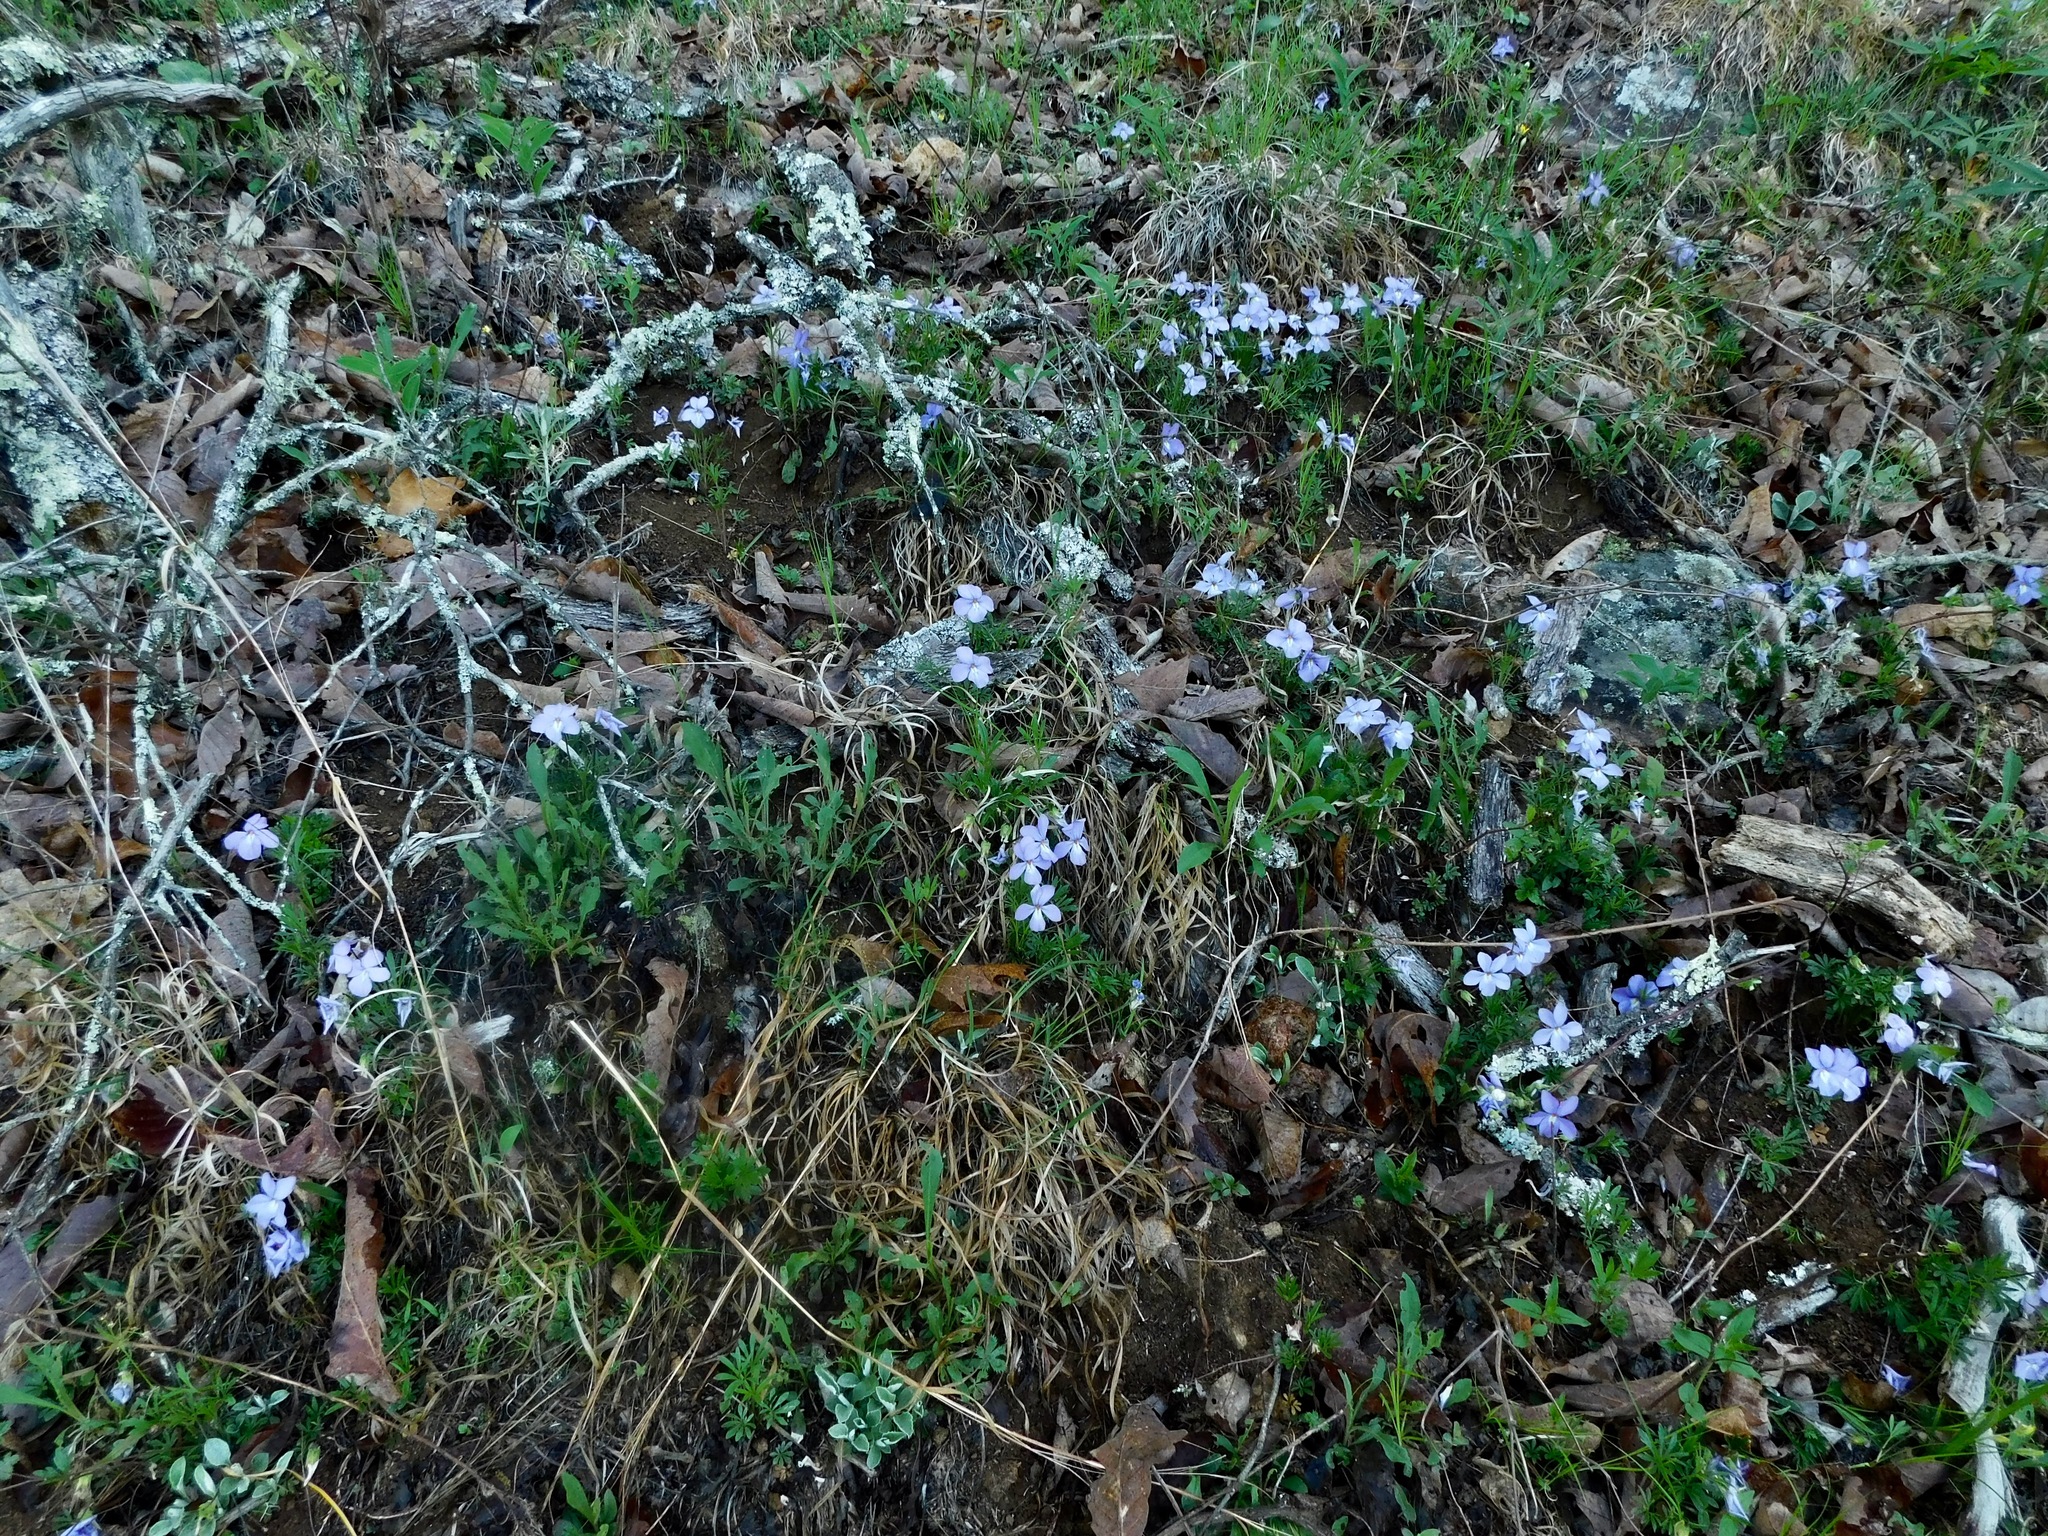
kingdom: Plantae
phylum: Tracheophyta
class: Magnoliopsida
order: Malpighiales
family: Violaceae
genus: Viola
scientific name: Viola pedata
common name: Pansy violet
